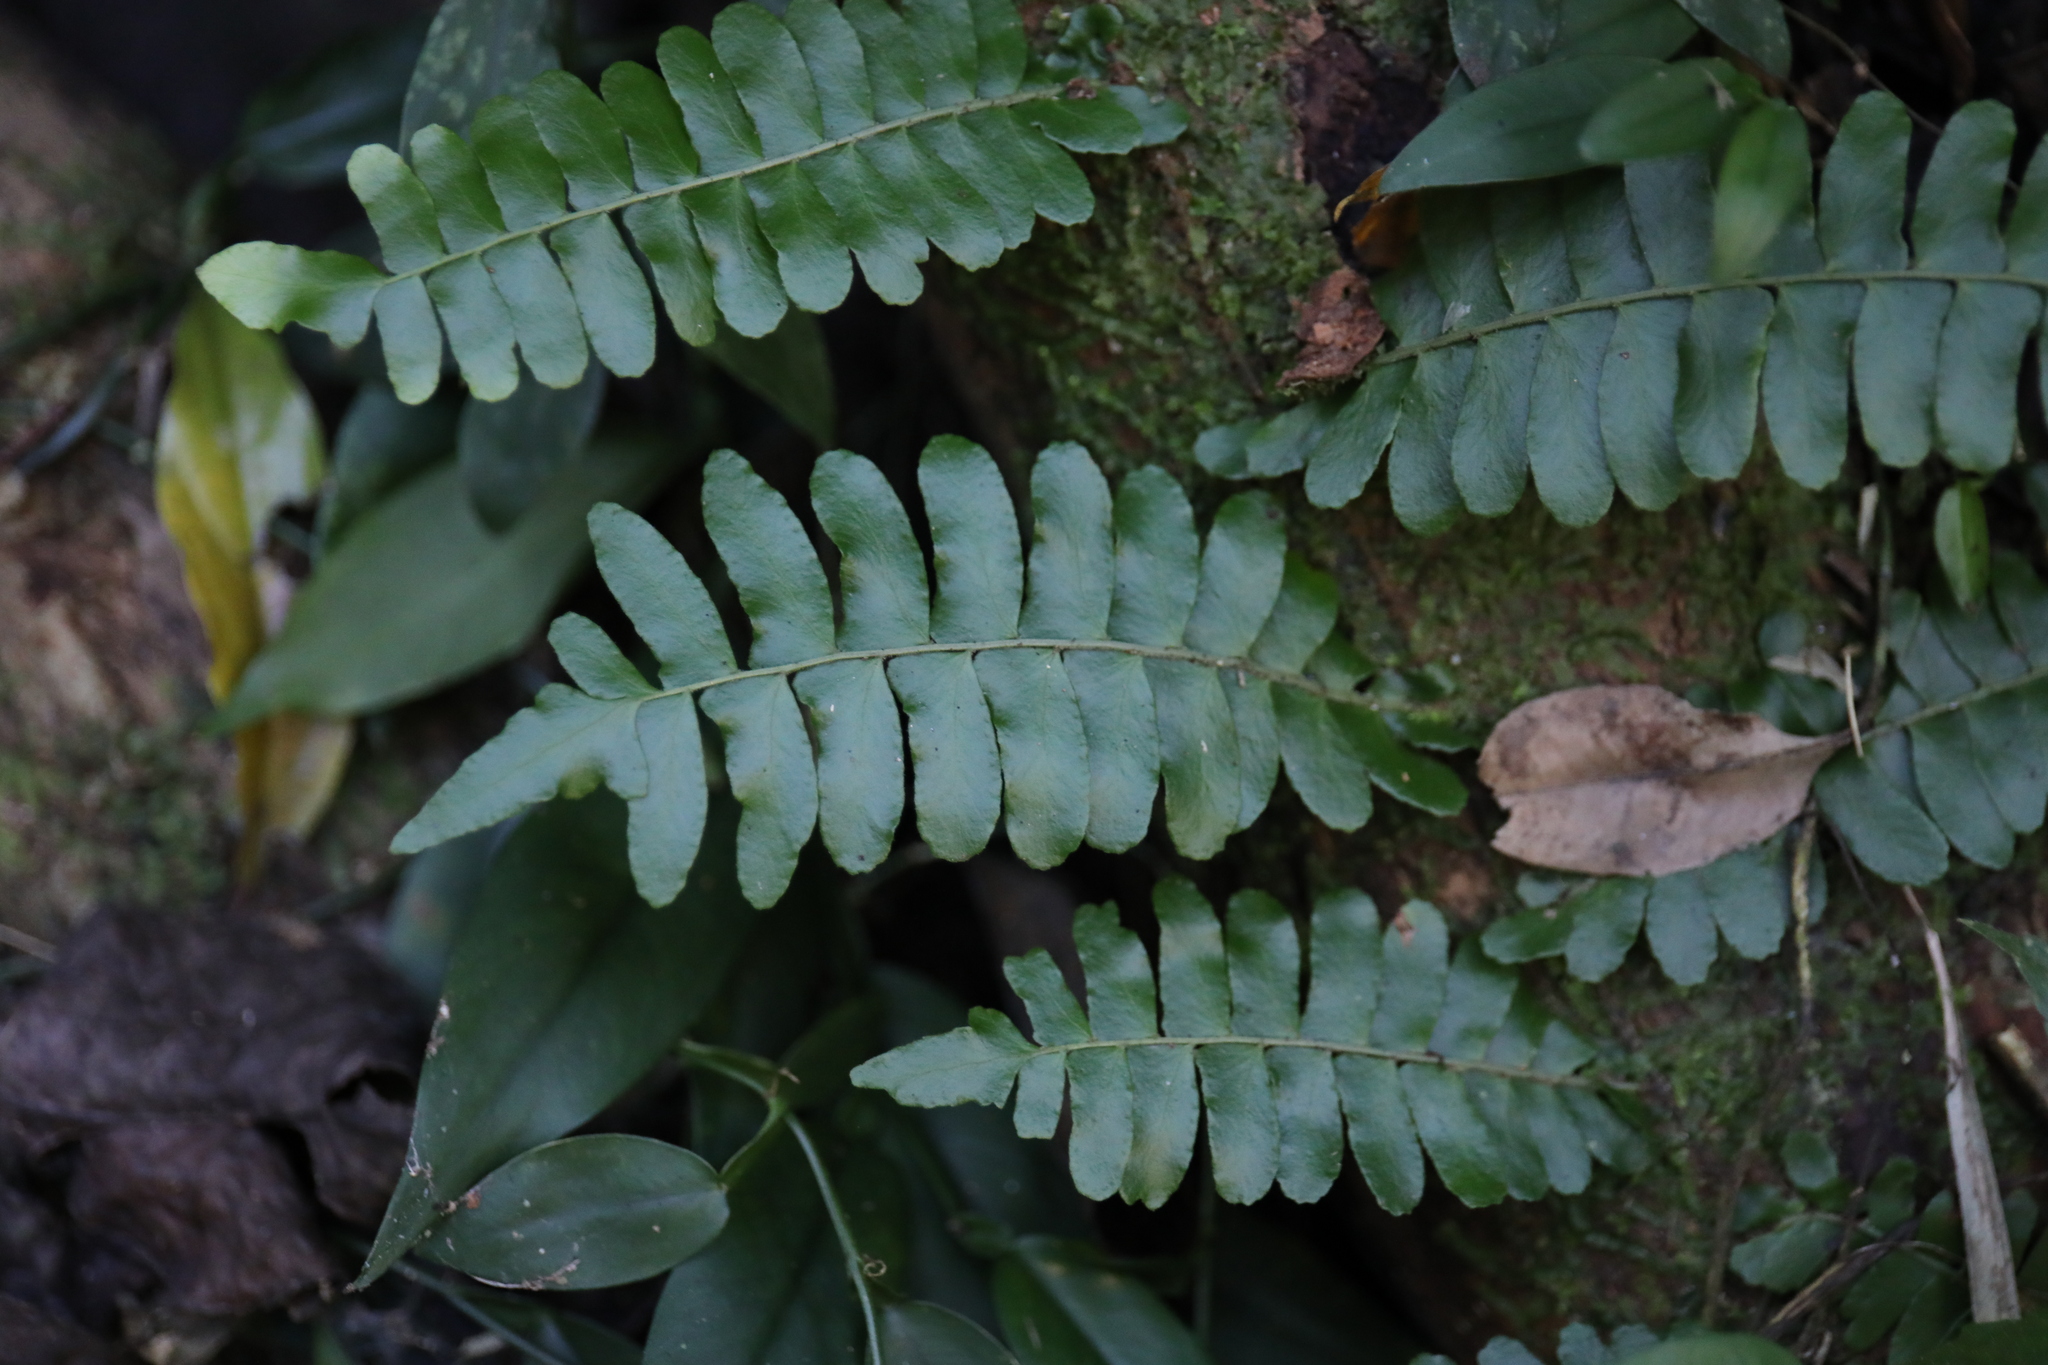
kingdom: Plantae
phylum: Tracheophyta
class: Polypodiopsida
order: Polypodiales
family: Tectariaceae
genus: Arthropteris
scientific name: Arthropteris palisotii
